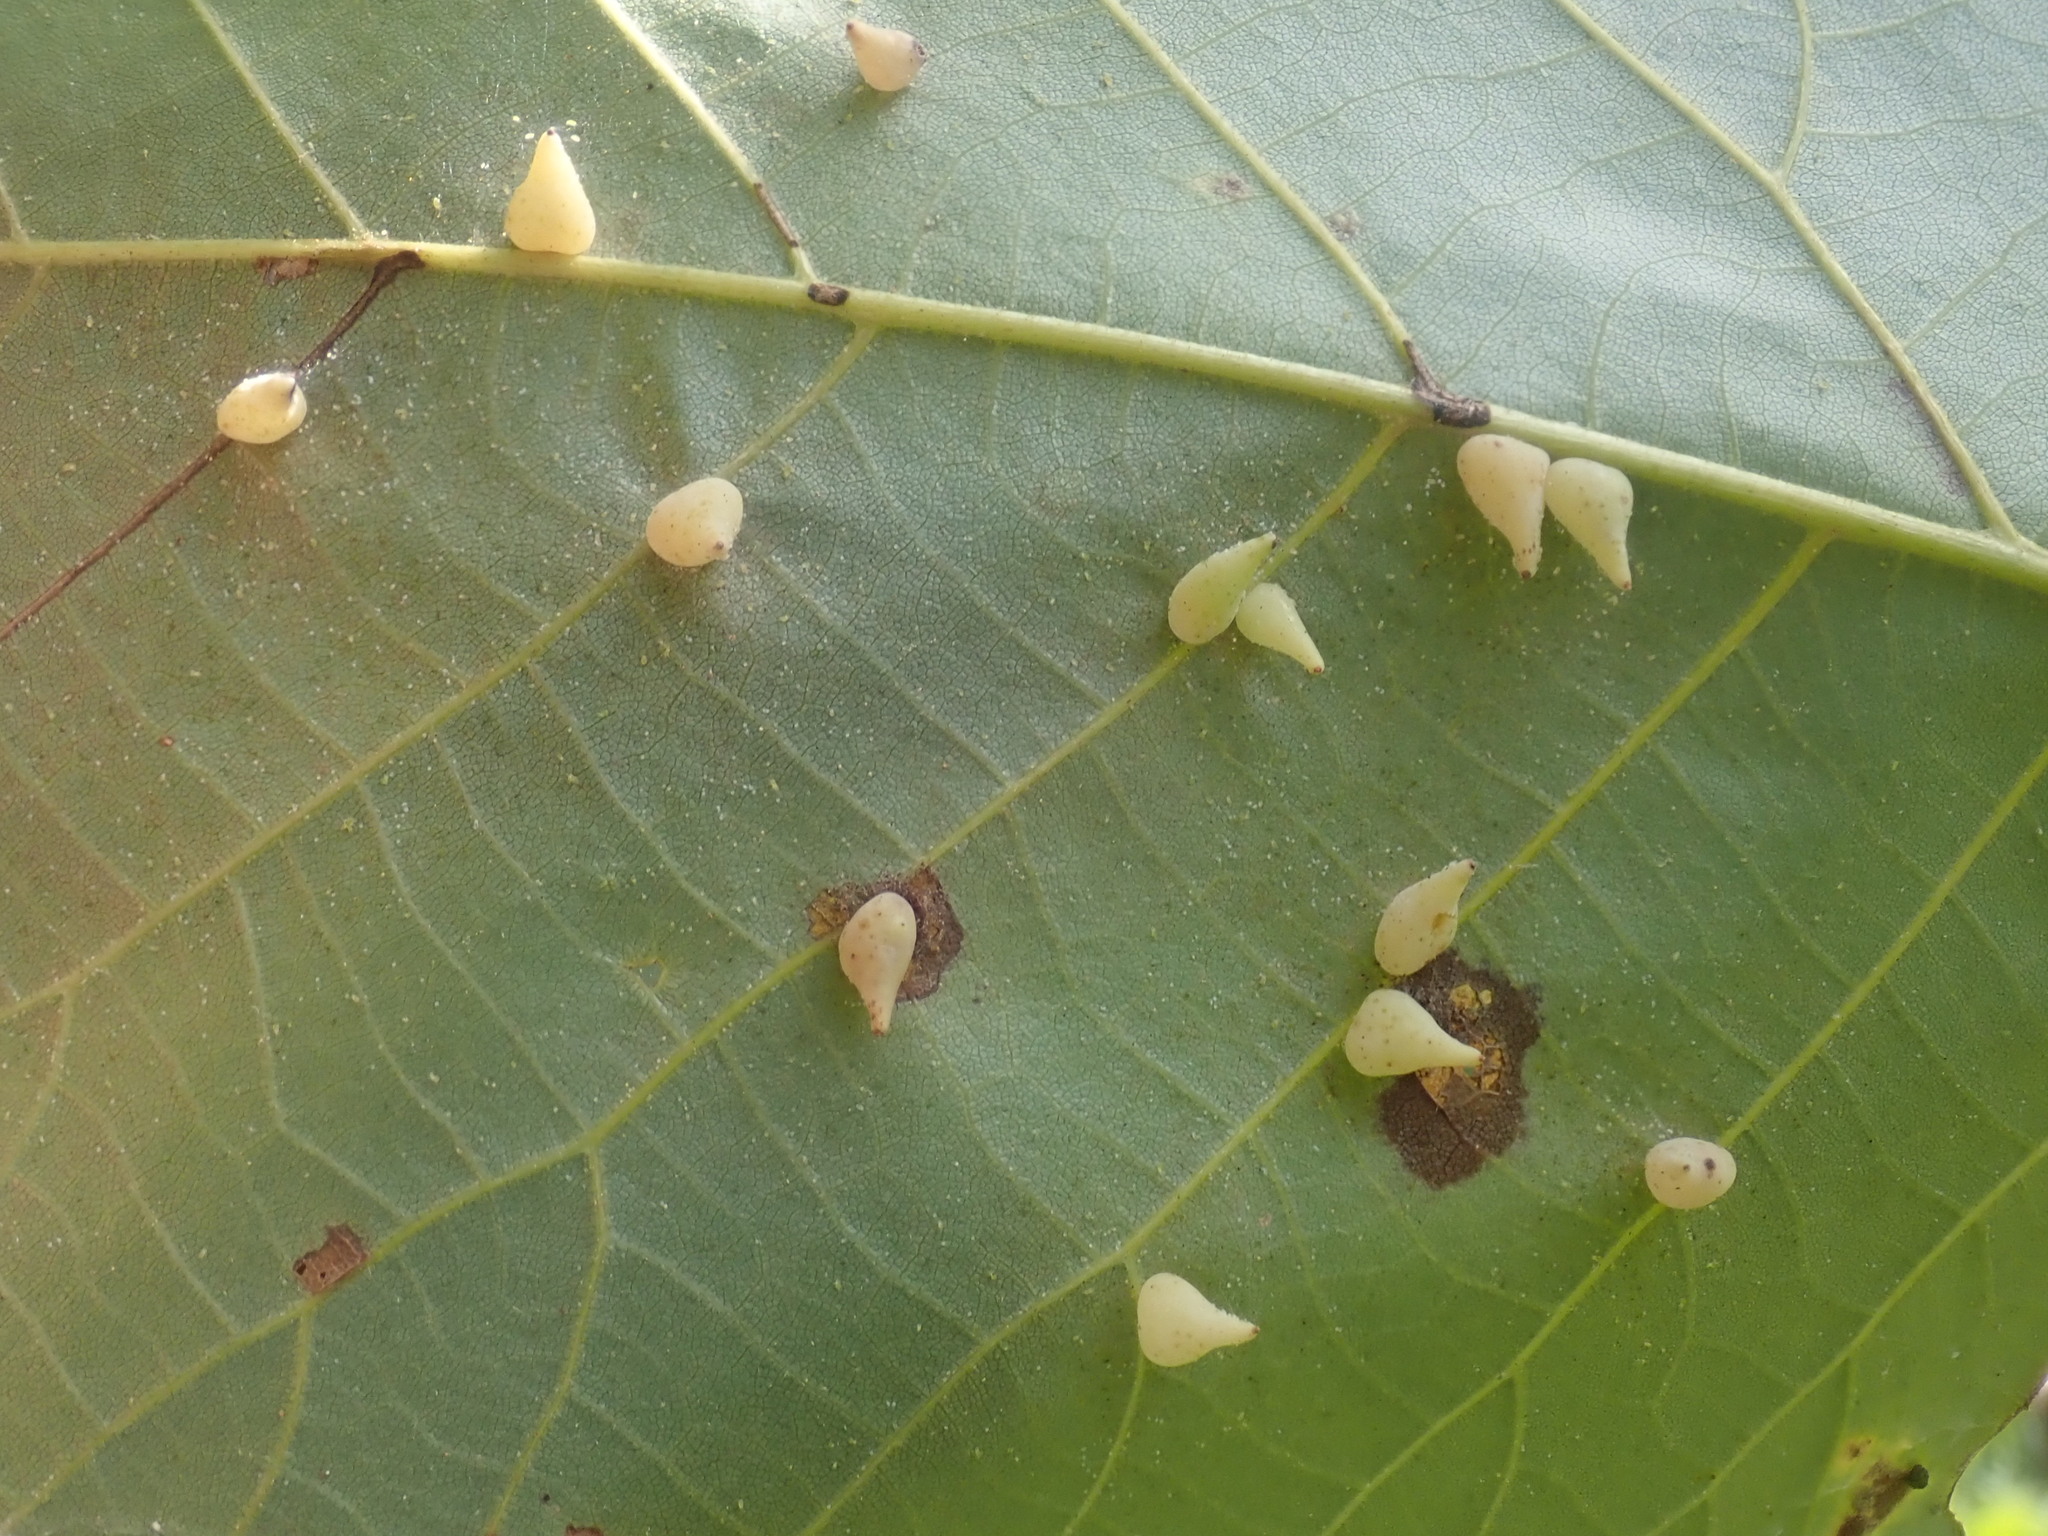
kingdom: Animalia
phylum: Arthropoda
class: Insecta
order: Diptera
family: Cecidomyiidae
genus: Caryomyia
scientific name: Caryomyia caryaecola
